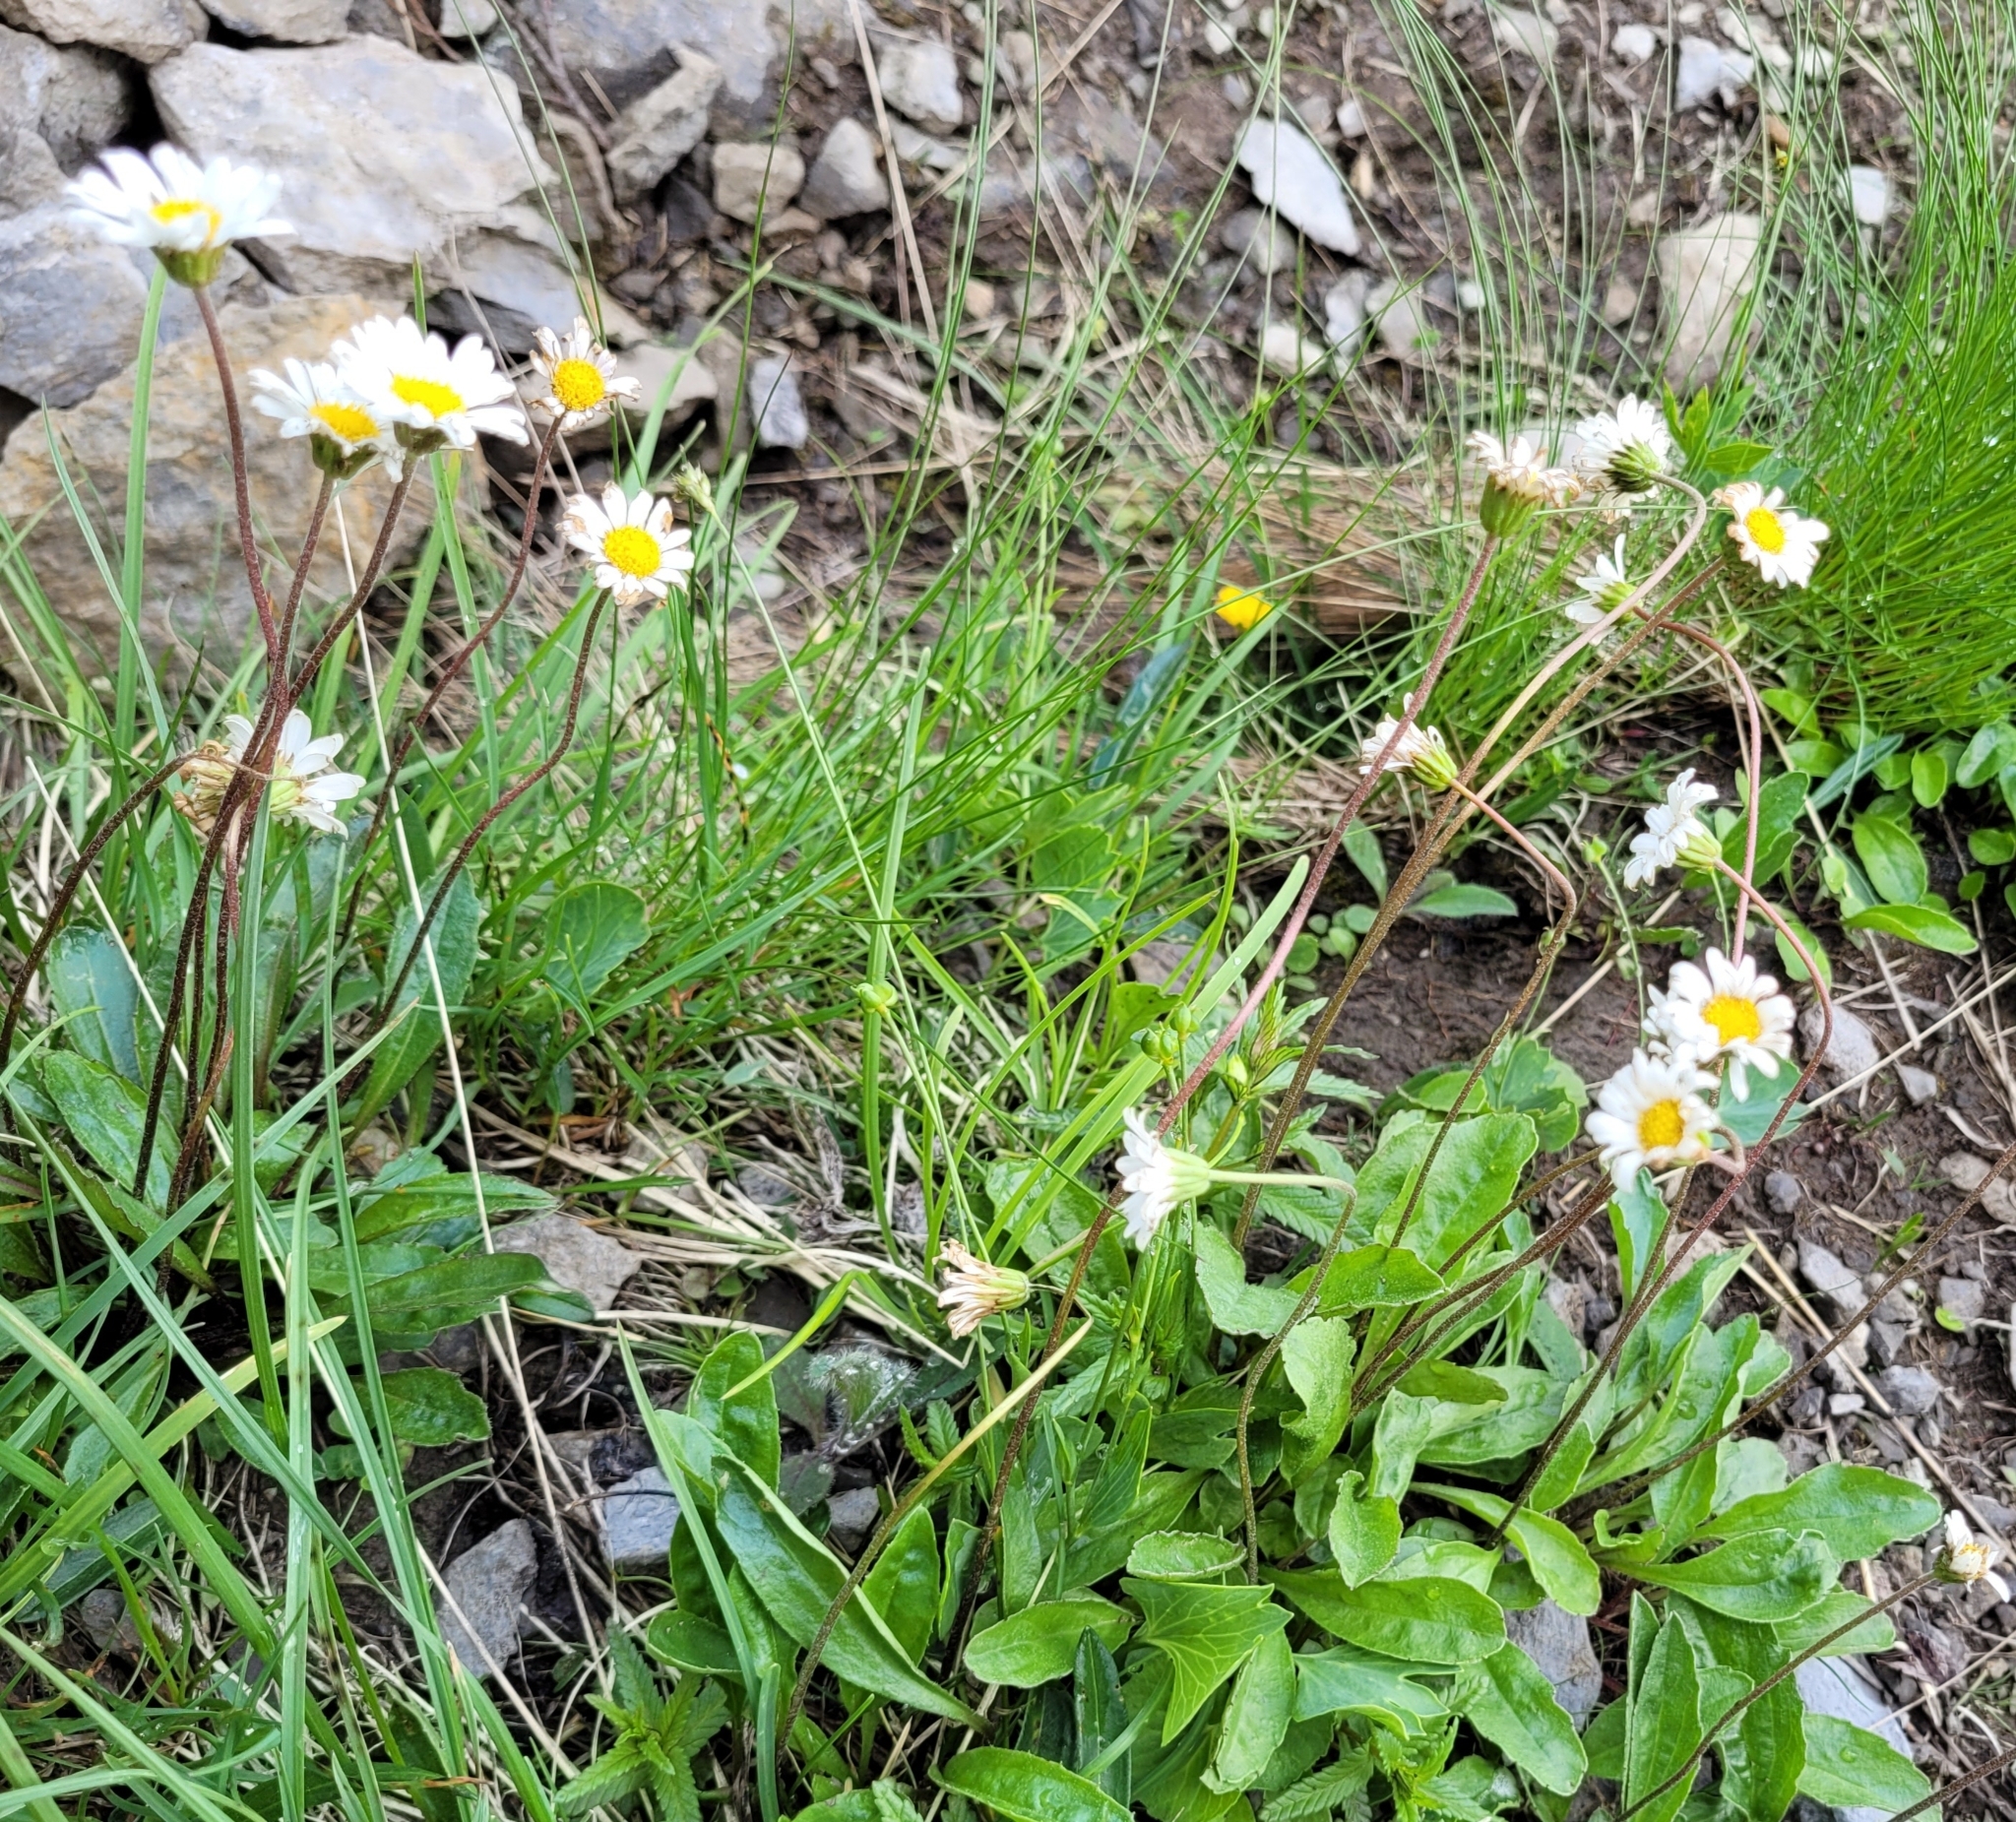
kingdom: Plantae
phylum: Tracheophyta
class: Magnoliopsida
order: Asterales
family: Asteraceae
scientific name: Asteraceae
